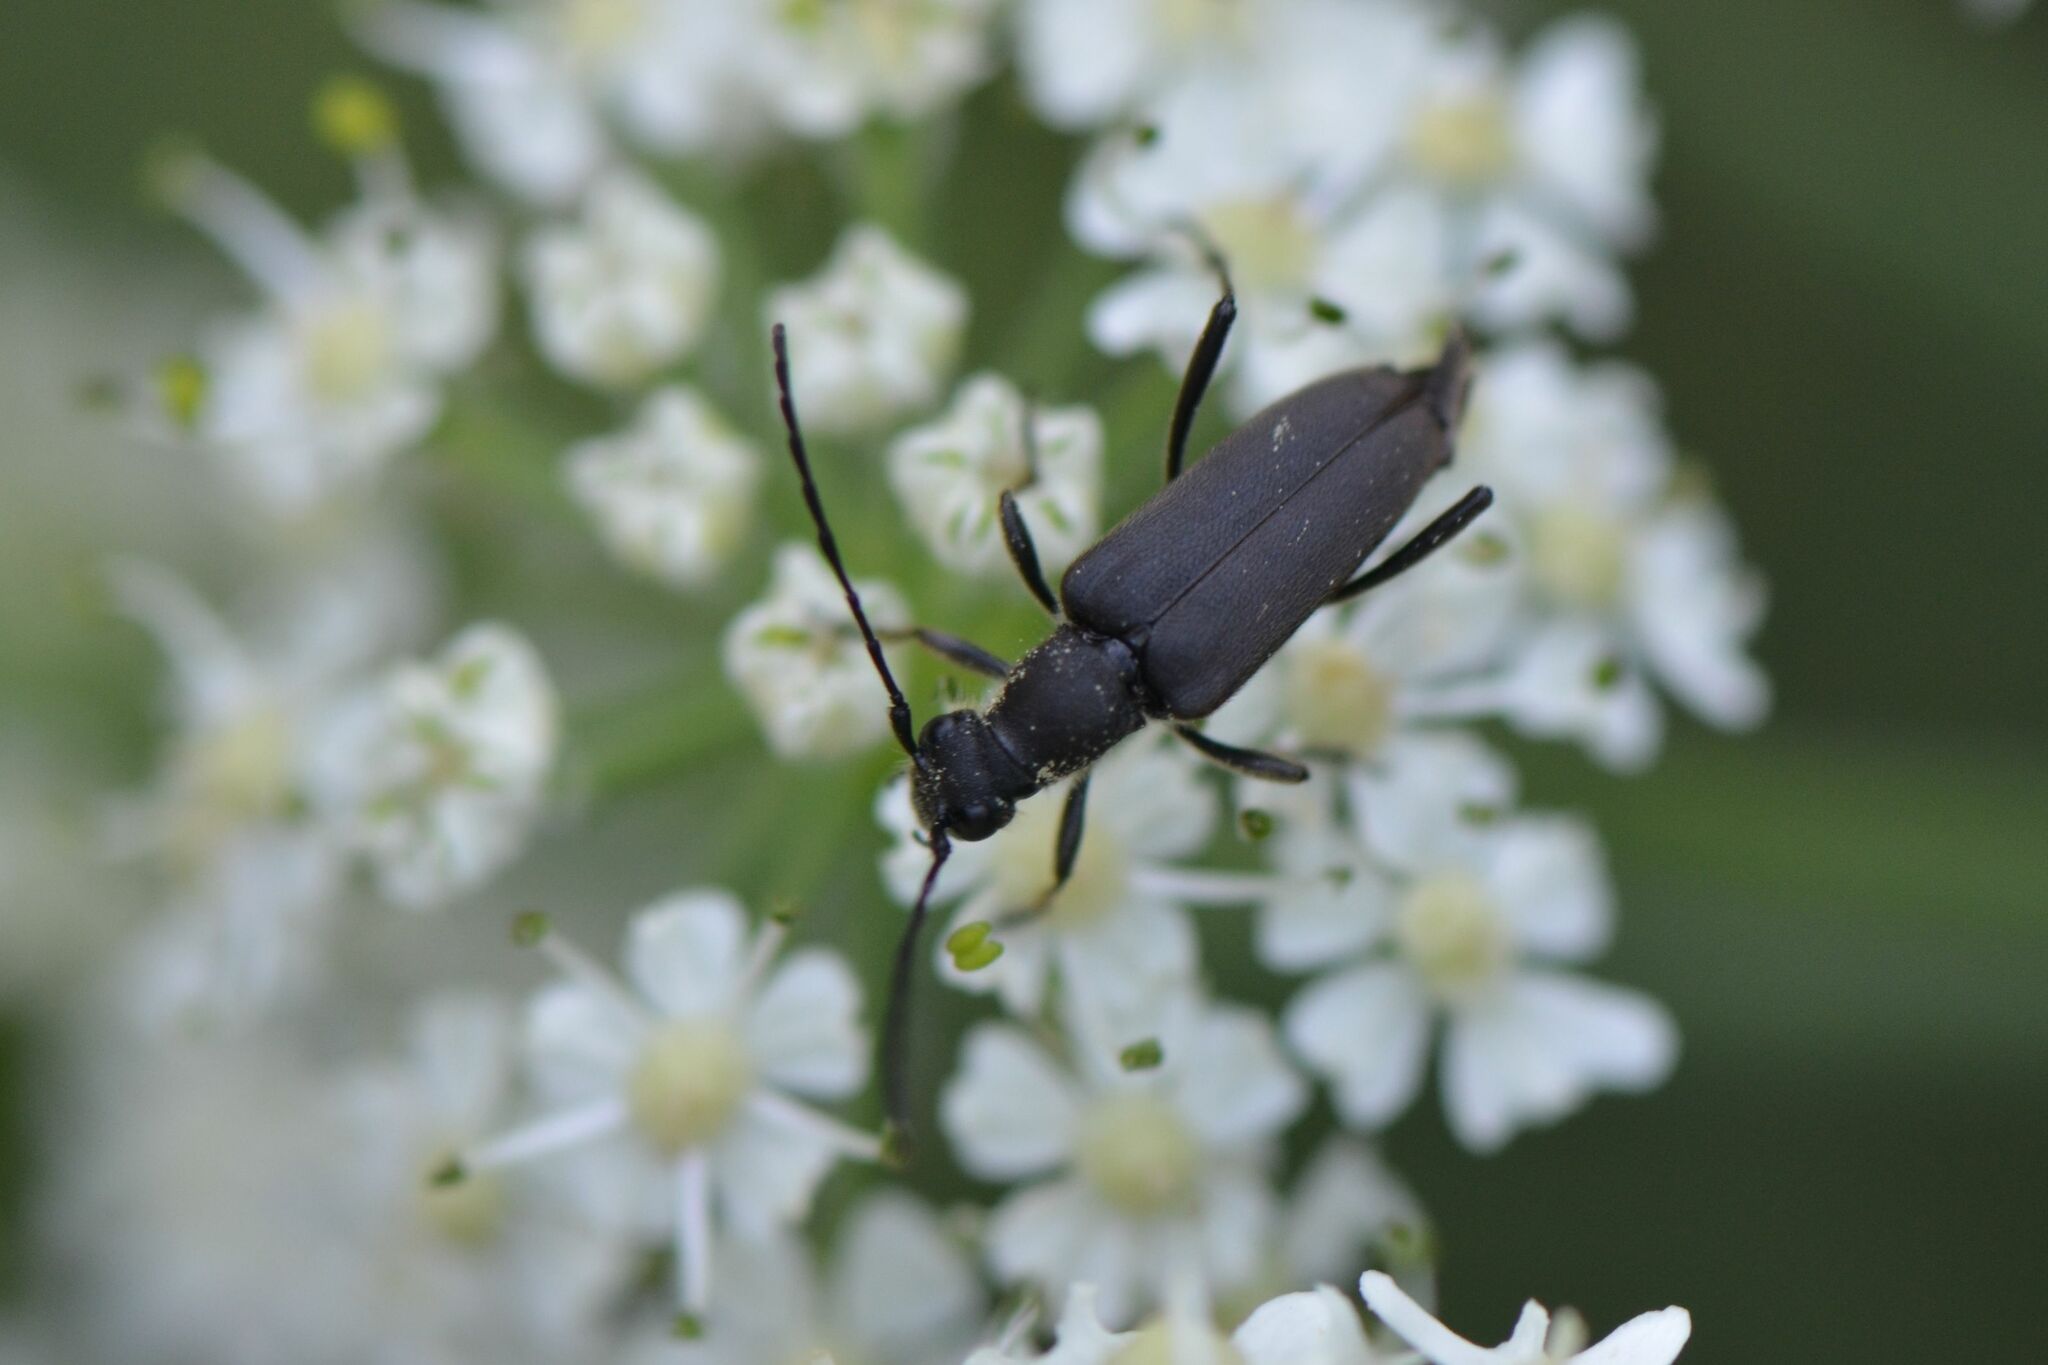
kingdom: Animalia
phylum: Arthropoda
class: Insecta
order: Coleoptera
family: Cerambycidae
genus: Anastrangalia
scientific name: Anastrangalia dubia
